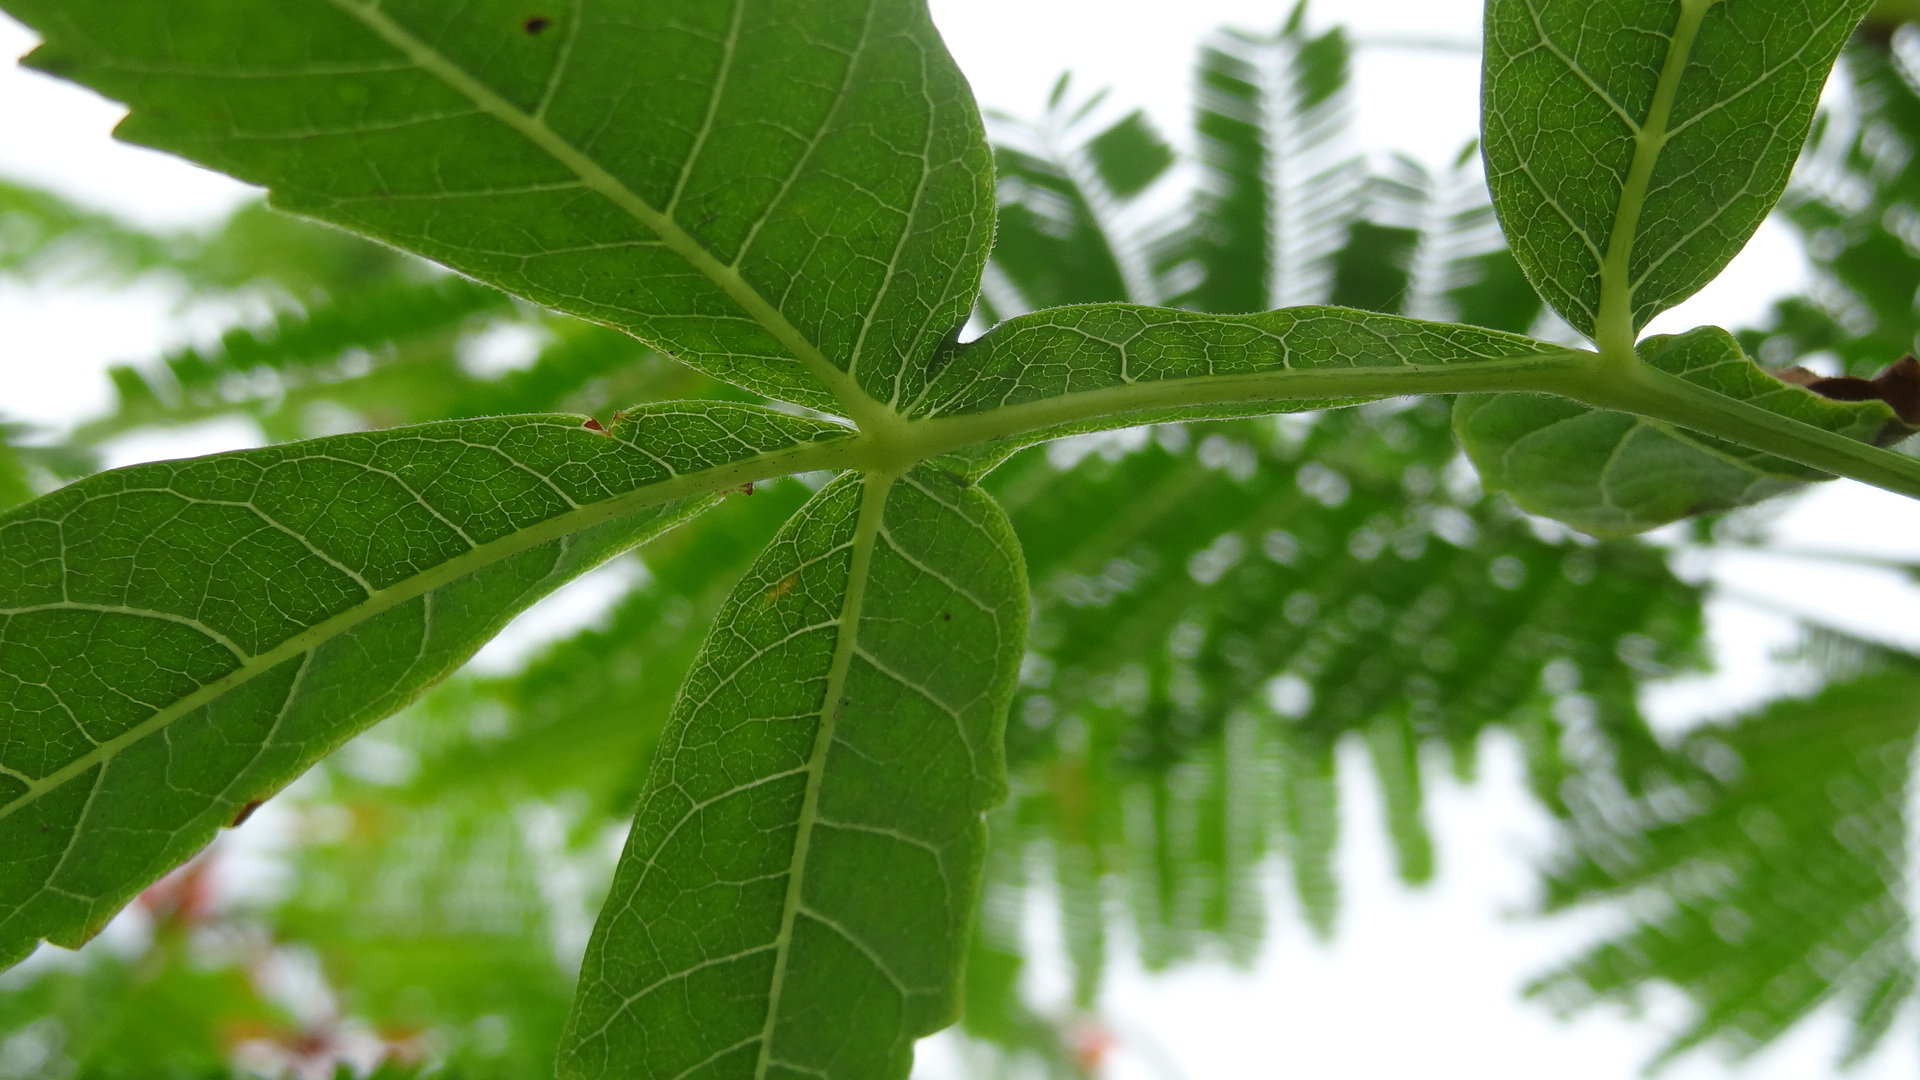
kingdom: Plantae
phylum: Tracheophyta
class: Magnoliopsida
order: Sapindales
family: Burseraceae
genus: Bursera
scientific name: Bursera graveolens
